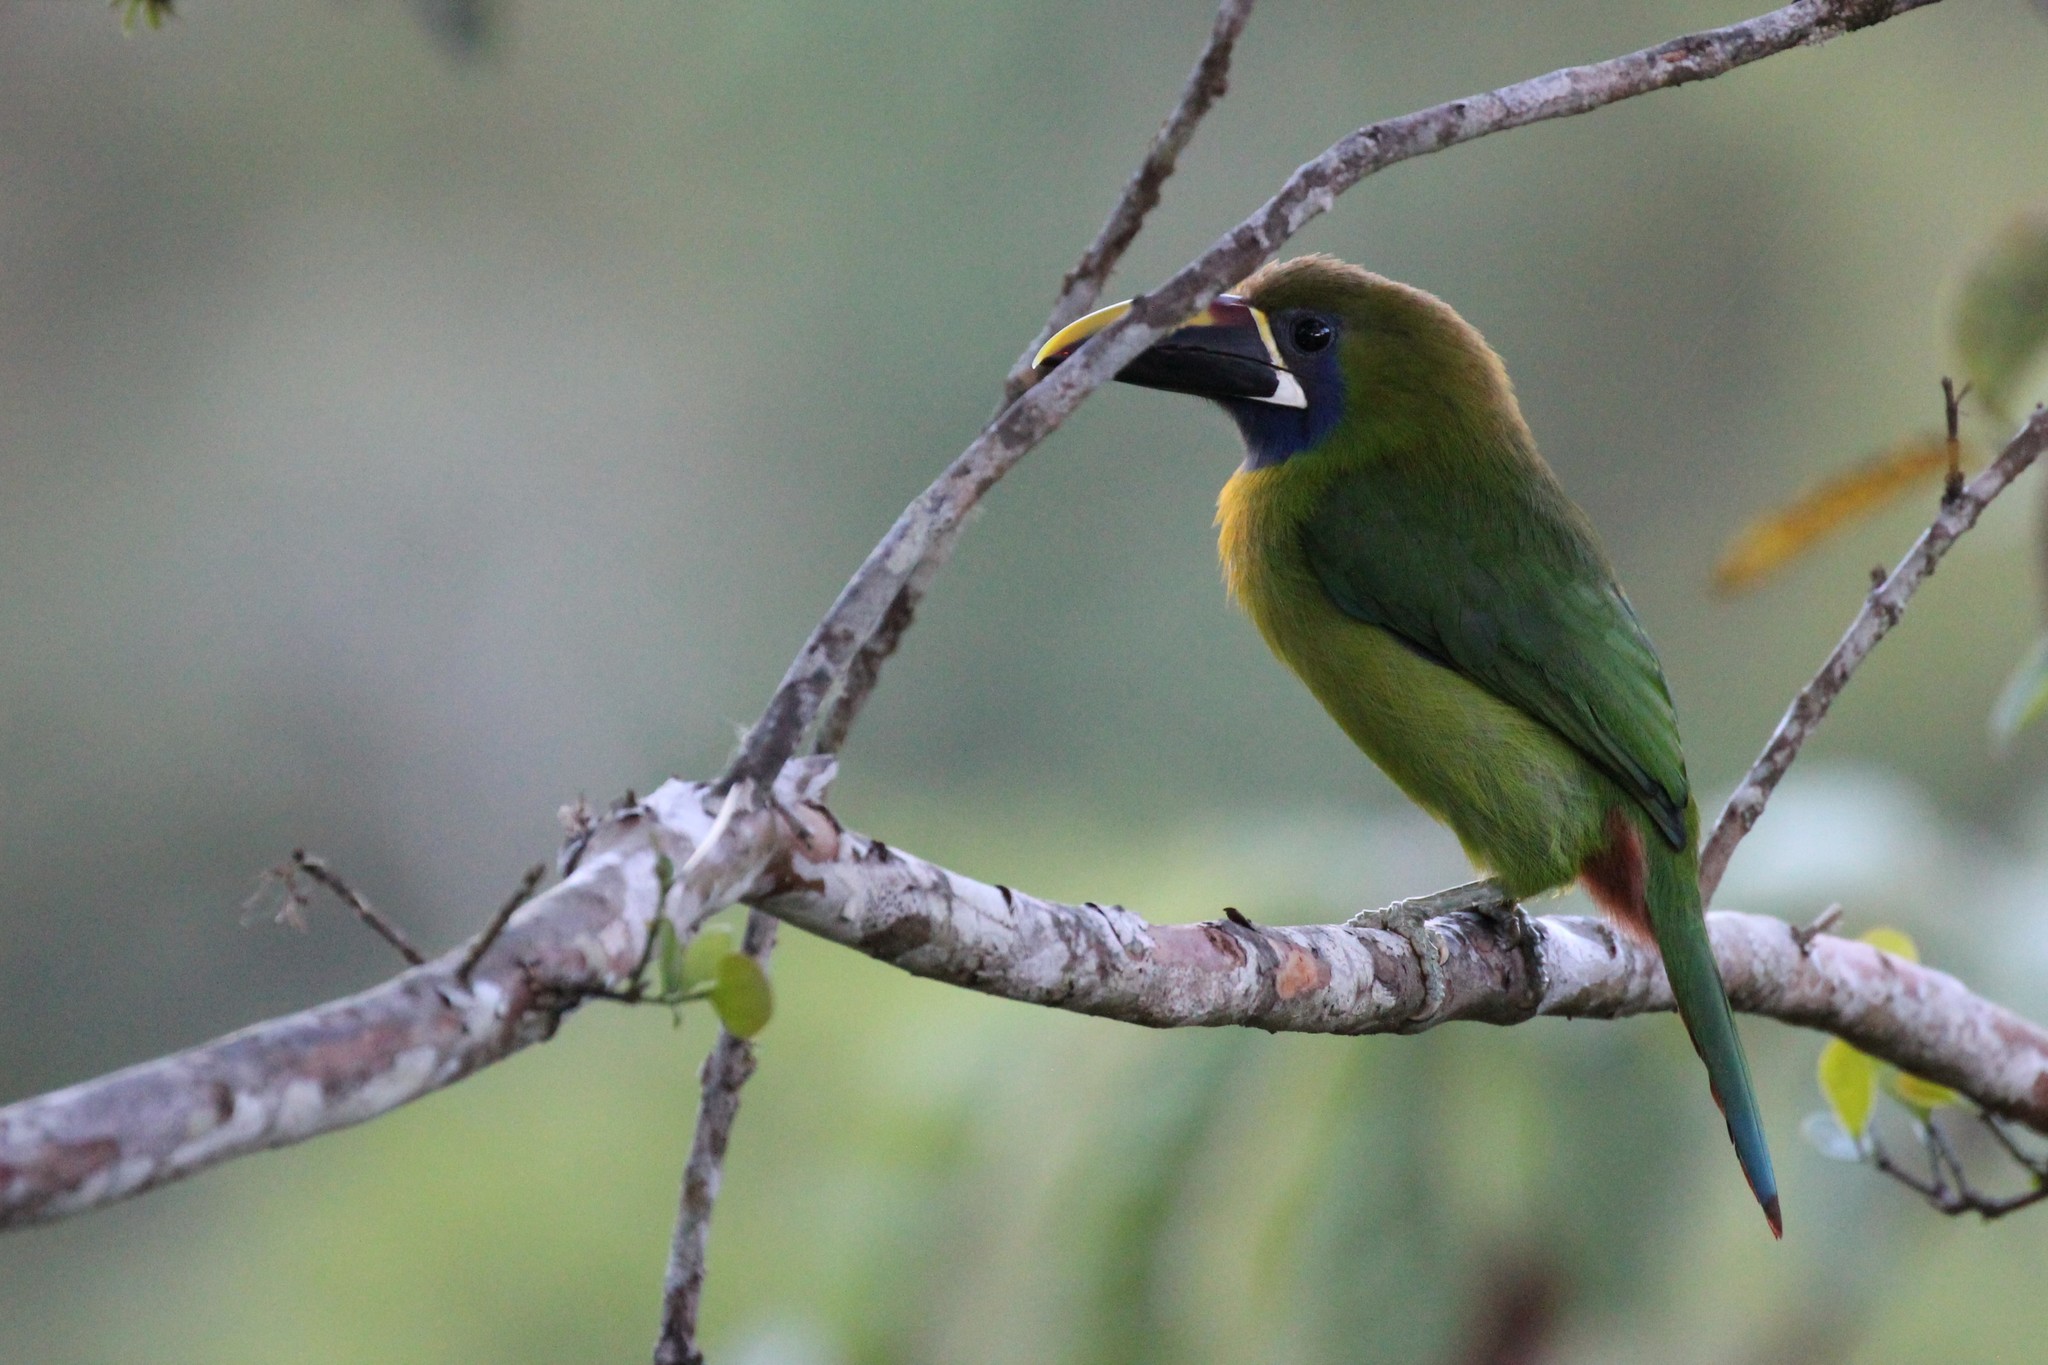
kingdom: Animalia
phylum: Chordata
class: Aves
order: Piciformes
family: Ramphastidae
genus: Aulacorhynchus
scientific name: Aulacorhynchus prasinus
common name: Emerald toucanet
